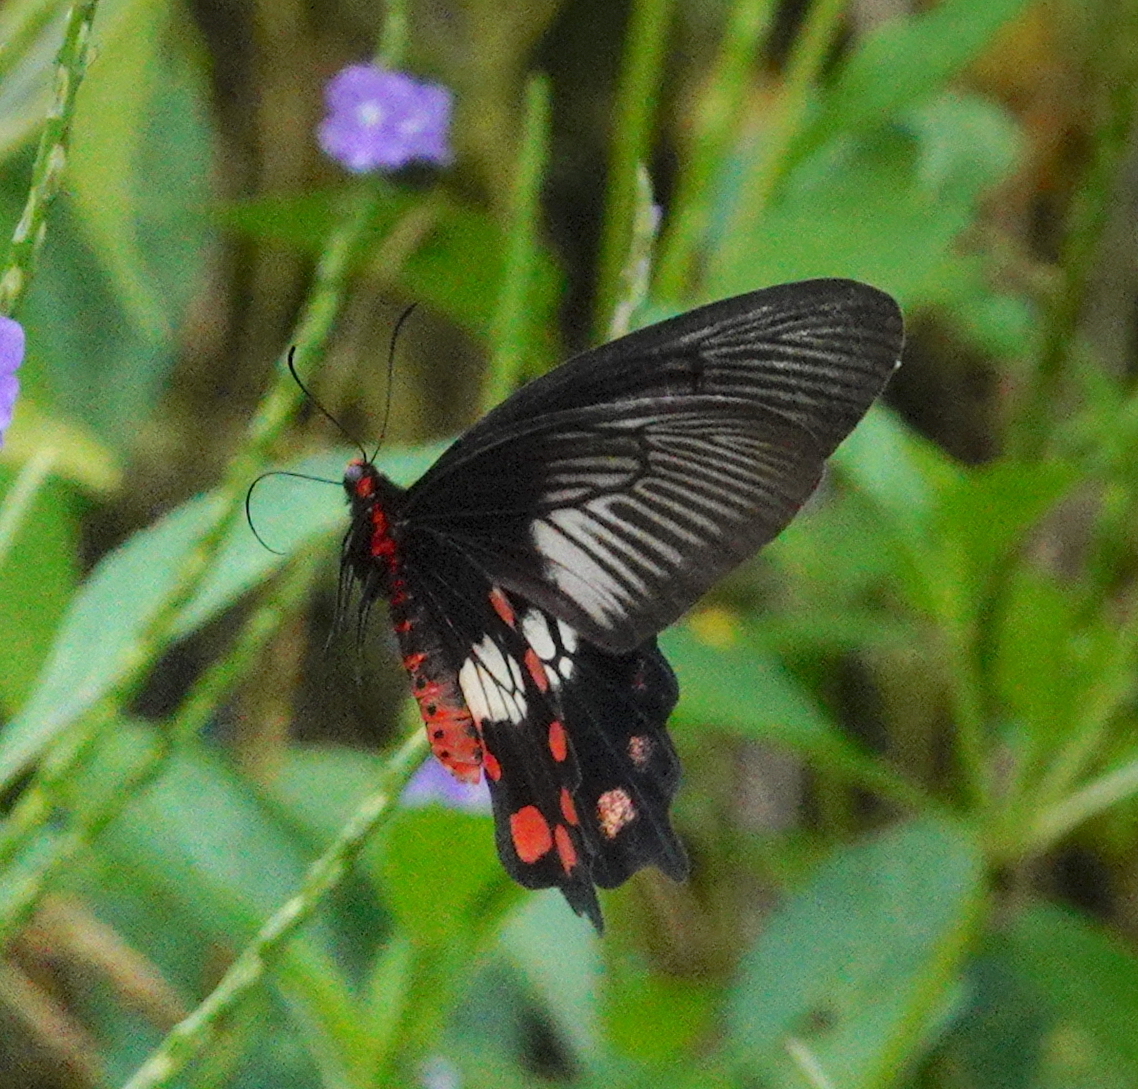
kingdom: Animalia
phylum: Arthropoda
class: Insecta
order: Lepidoptera
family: Papilionidae
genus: Pachliopta
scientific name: Pachliopta polydorus
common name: Red-bodied swallowtail
